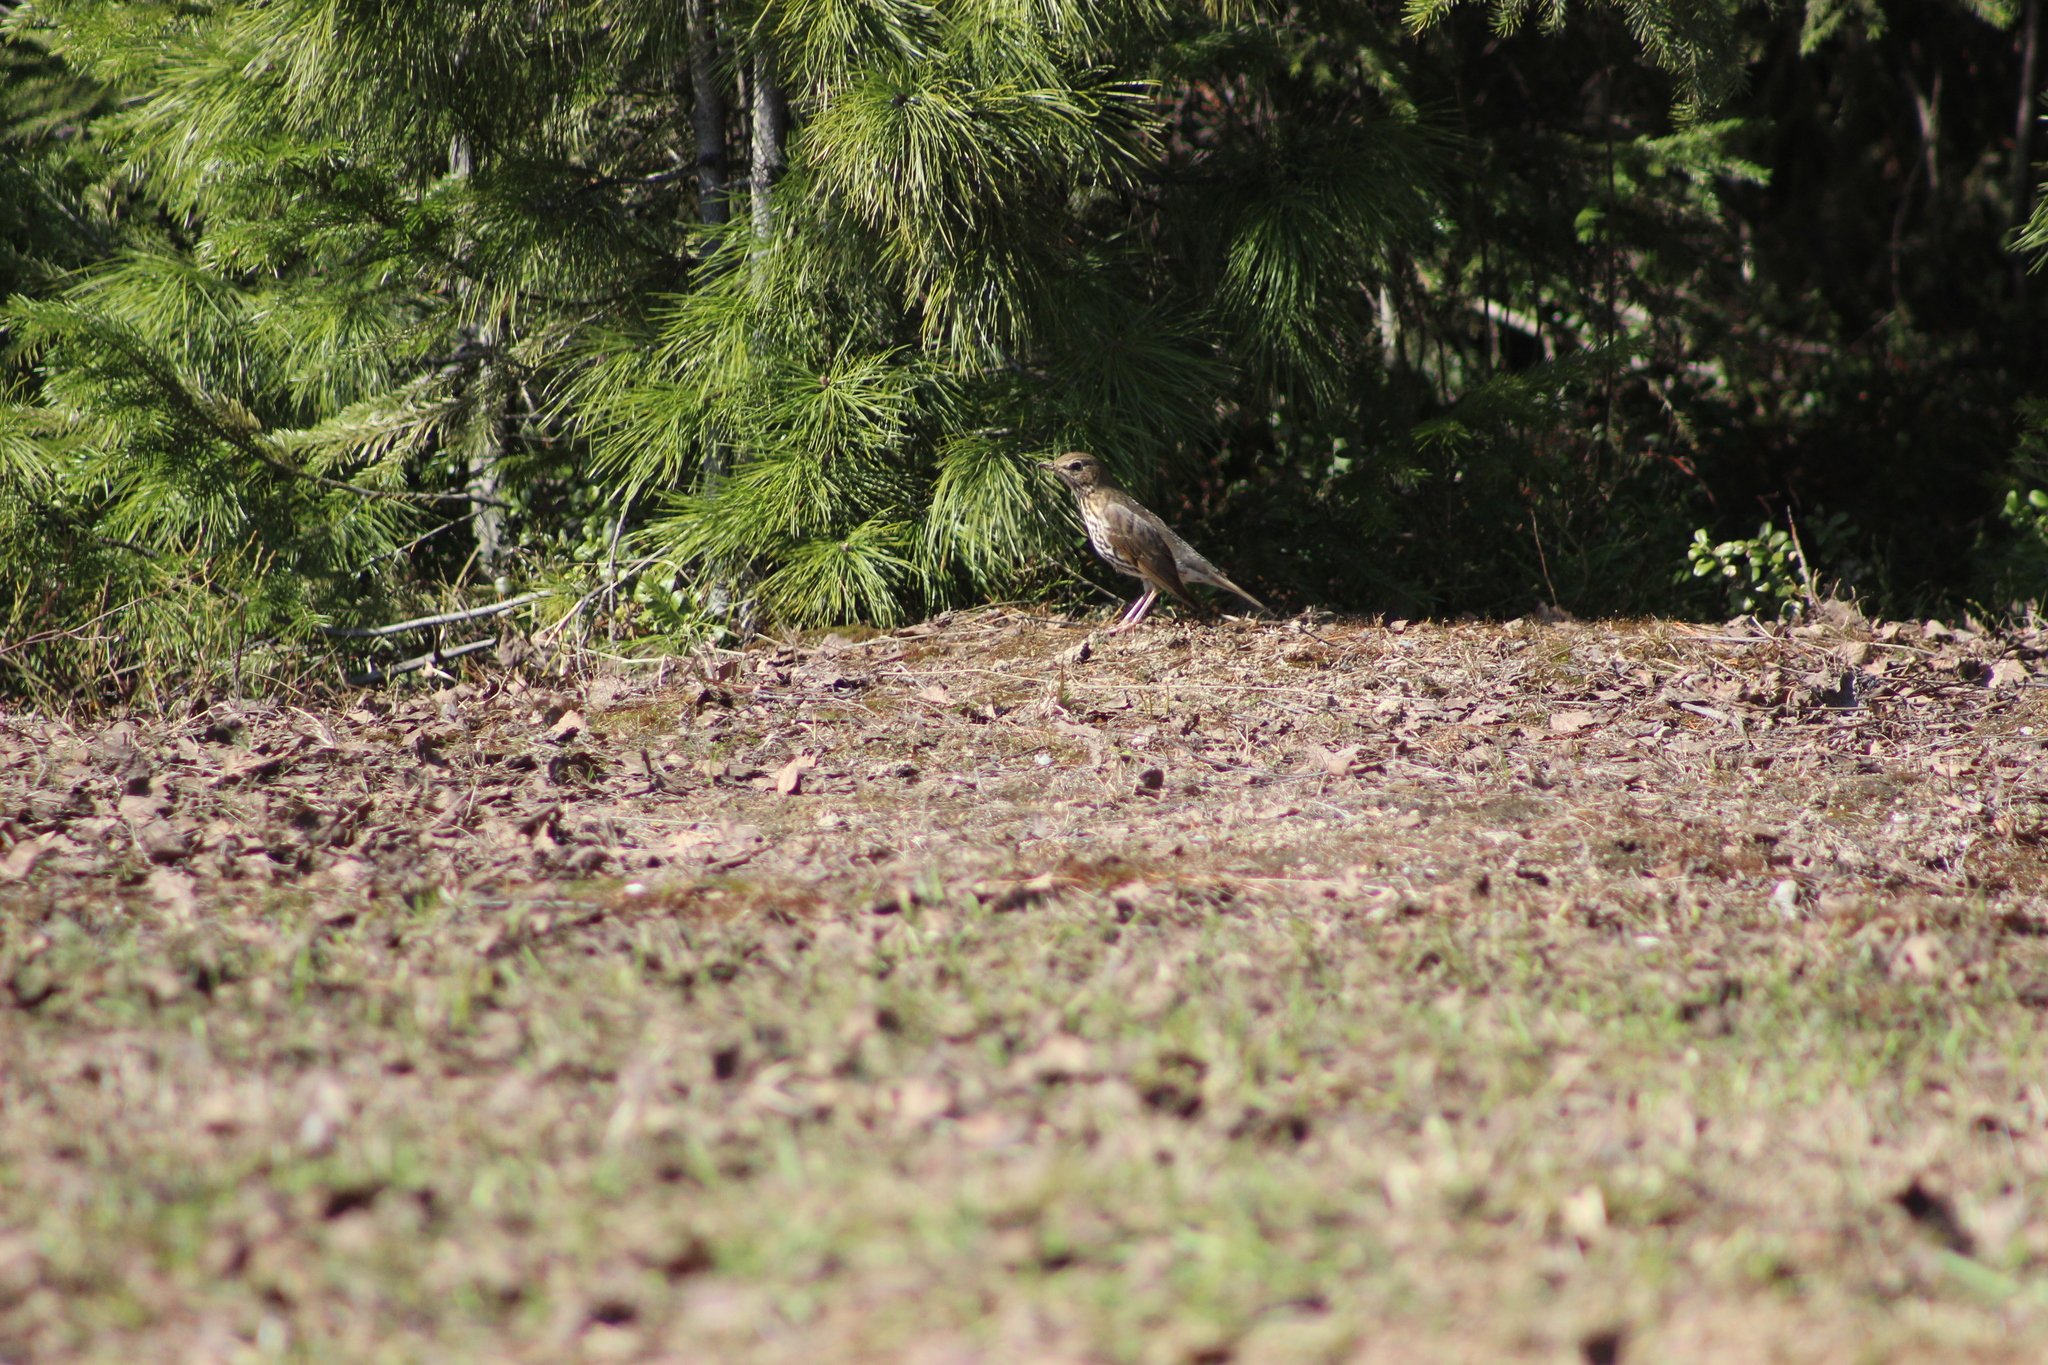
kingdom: Animalia
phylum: Chordata
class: Aves
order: Passeriformes
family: Turdidae
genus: Turdus
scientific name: Turdus philomelos
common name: Song thrush
